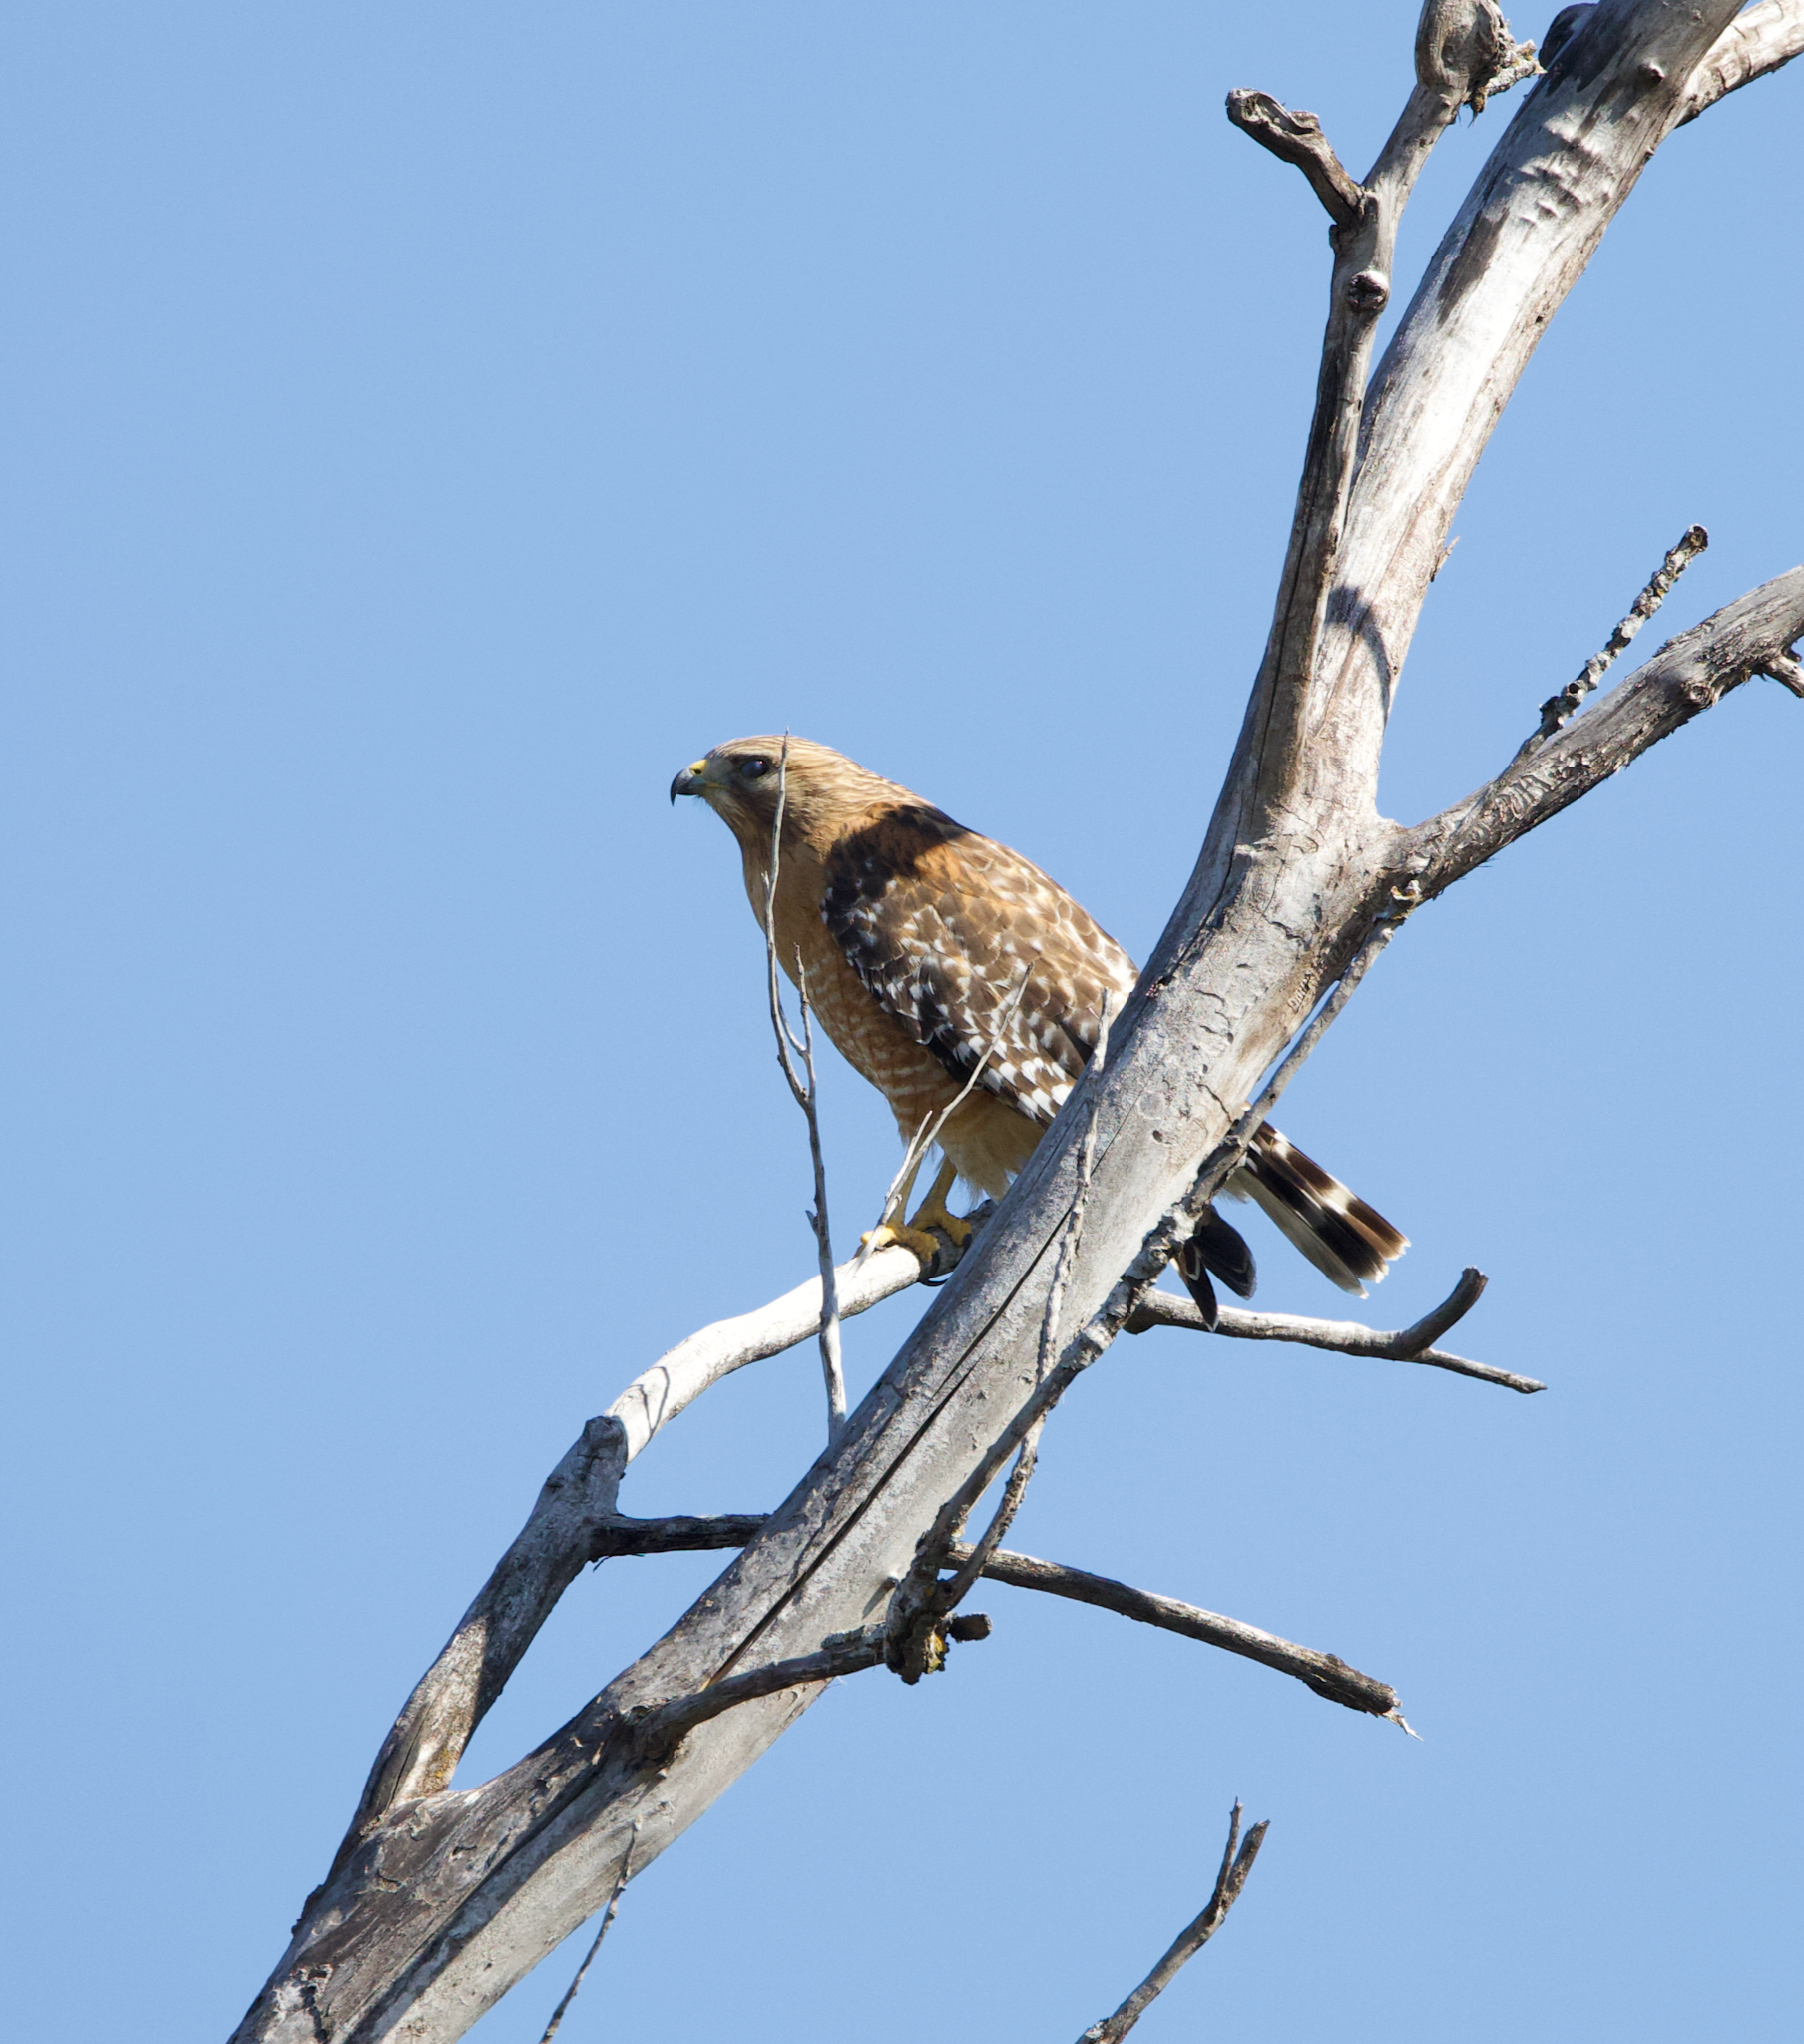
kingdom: Animalia
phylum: Chordata
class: Aves
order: Accipitriformes
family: Accipitridae
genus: Buteo
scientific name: Buteo lineatus
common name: Red-shouldered hawk
